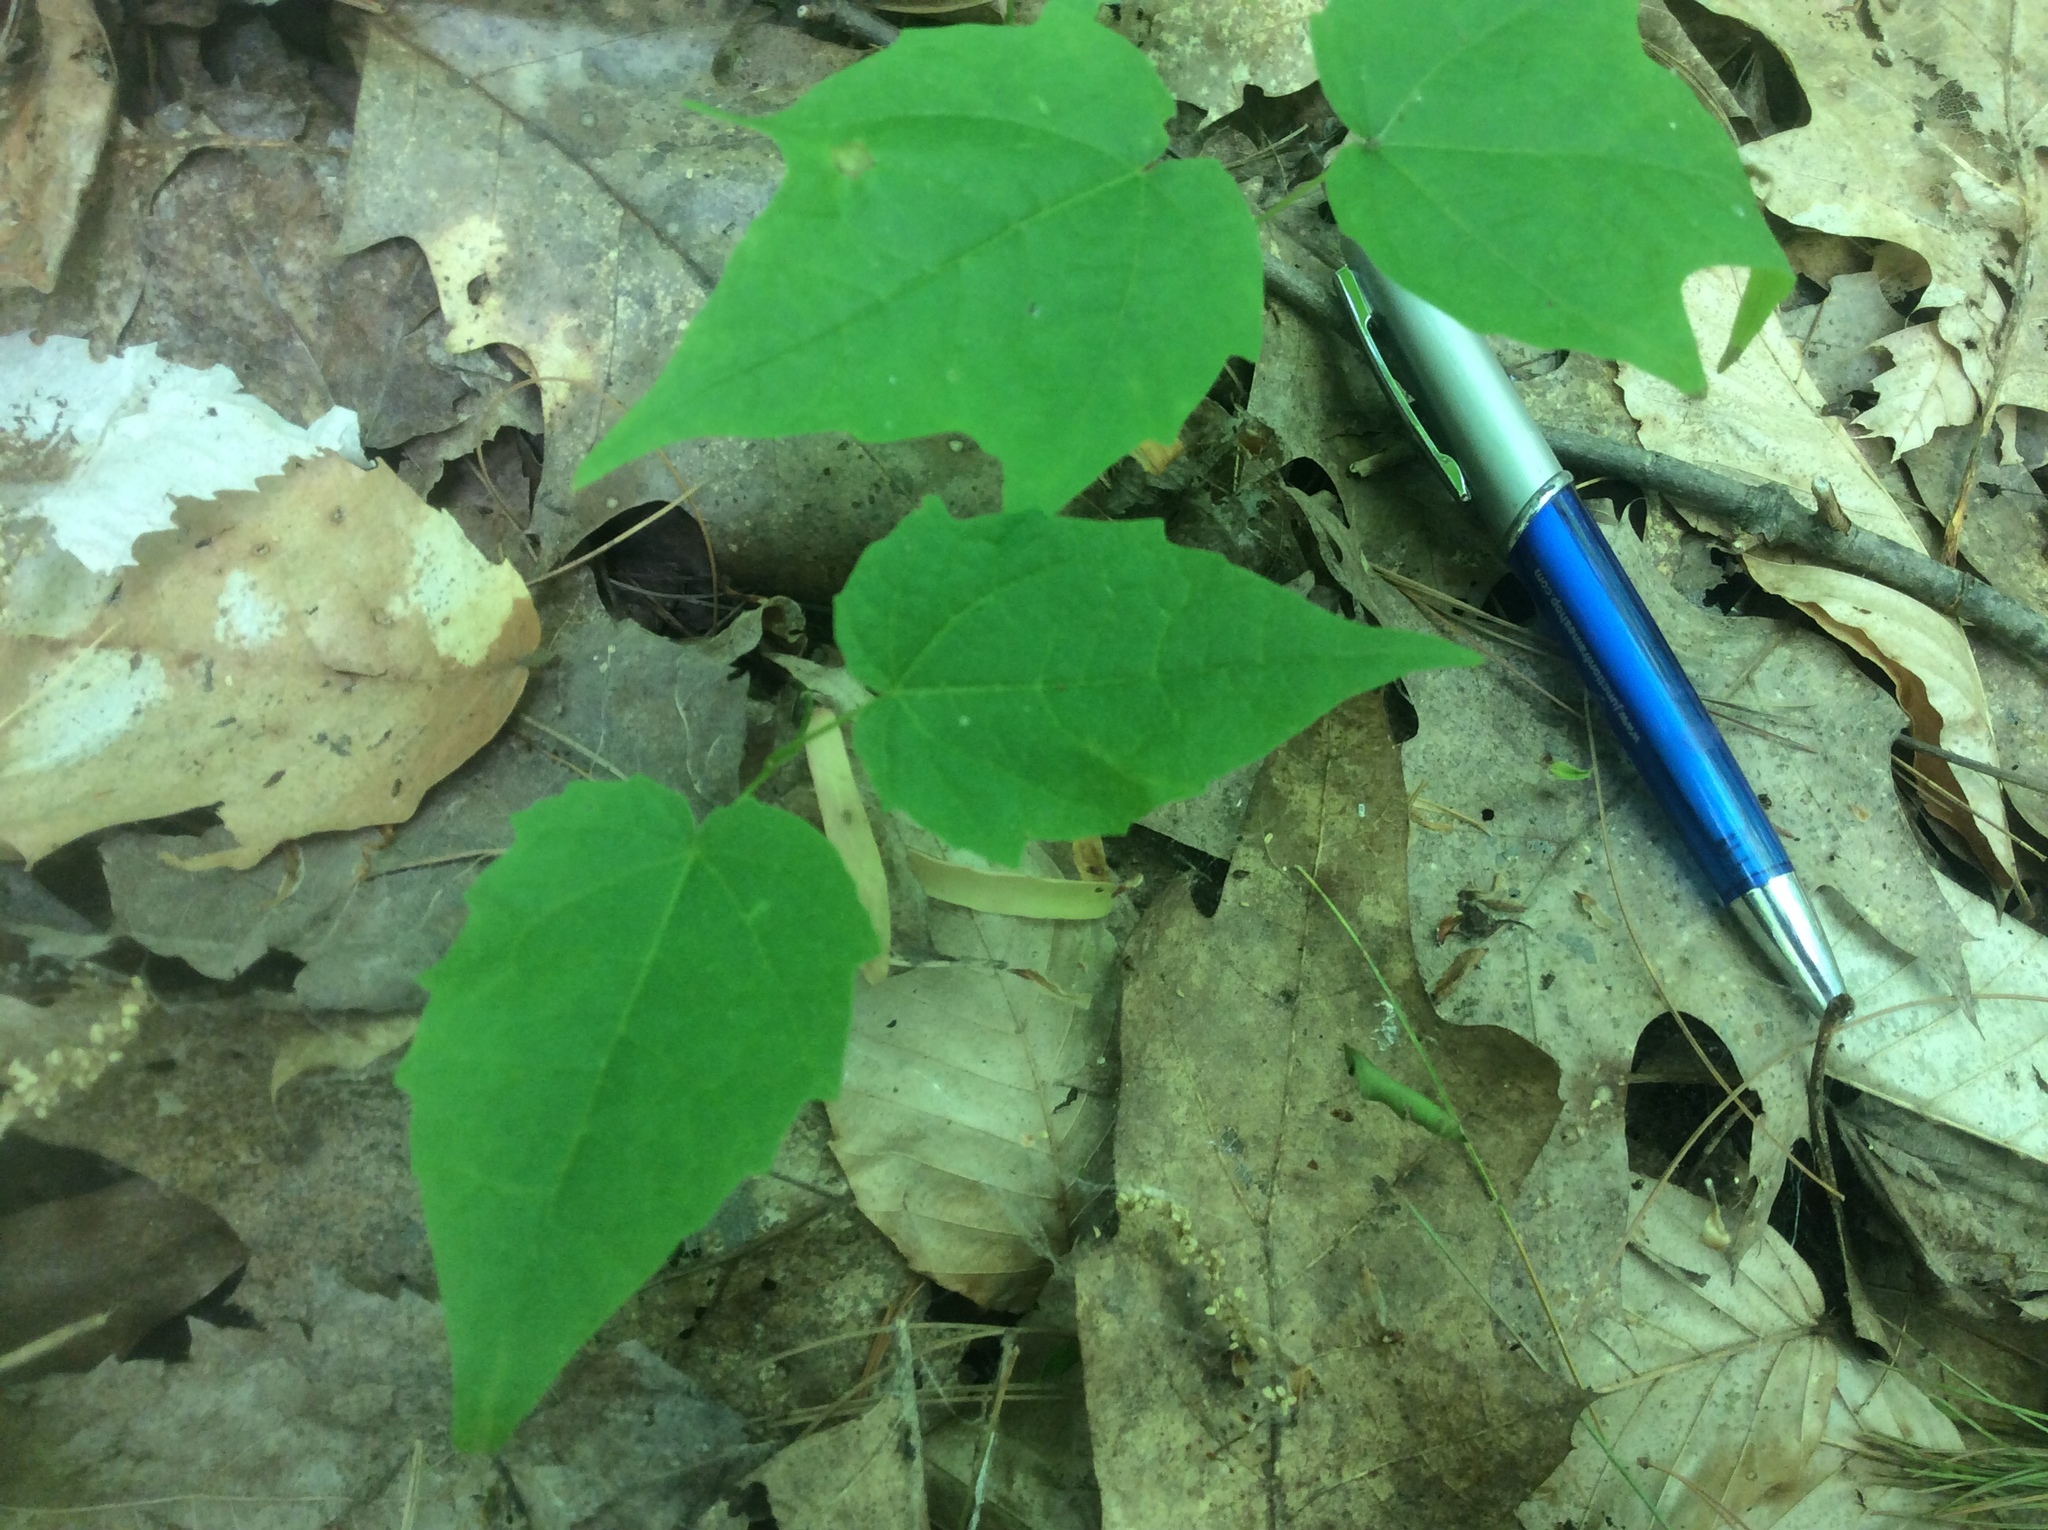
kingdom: Plantae
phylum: Tracheophyta
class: Magnoliopsida
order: Sapindales
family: Sapindaceae
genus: Acer
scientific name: Acer saccharum
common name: Sugar maple
